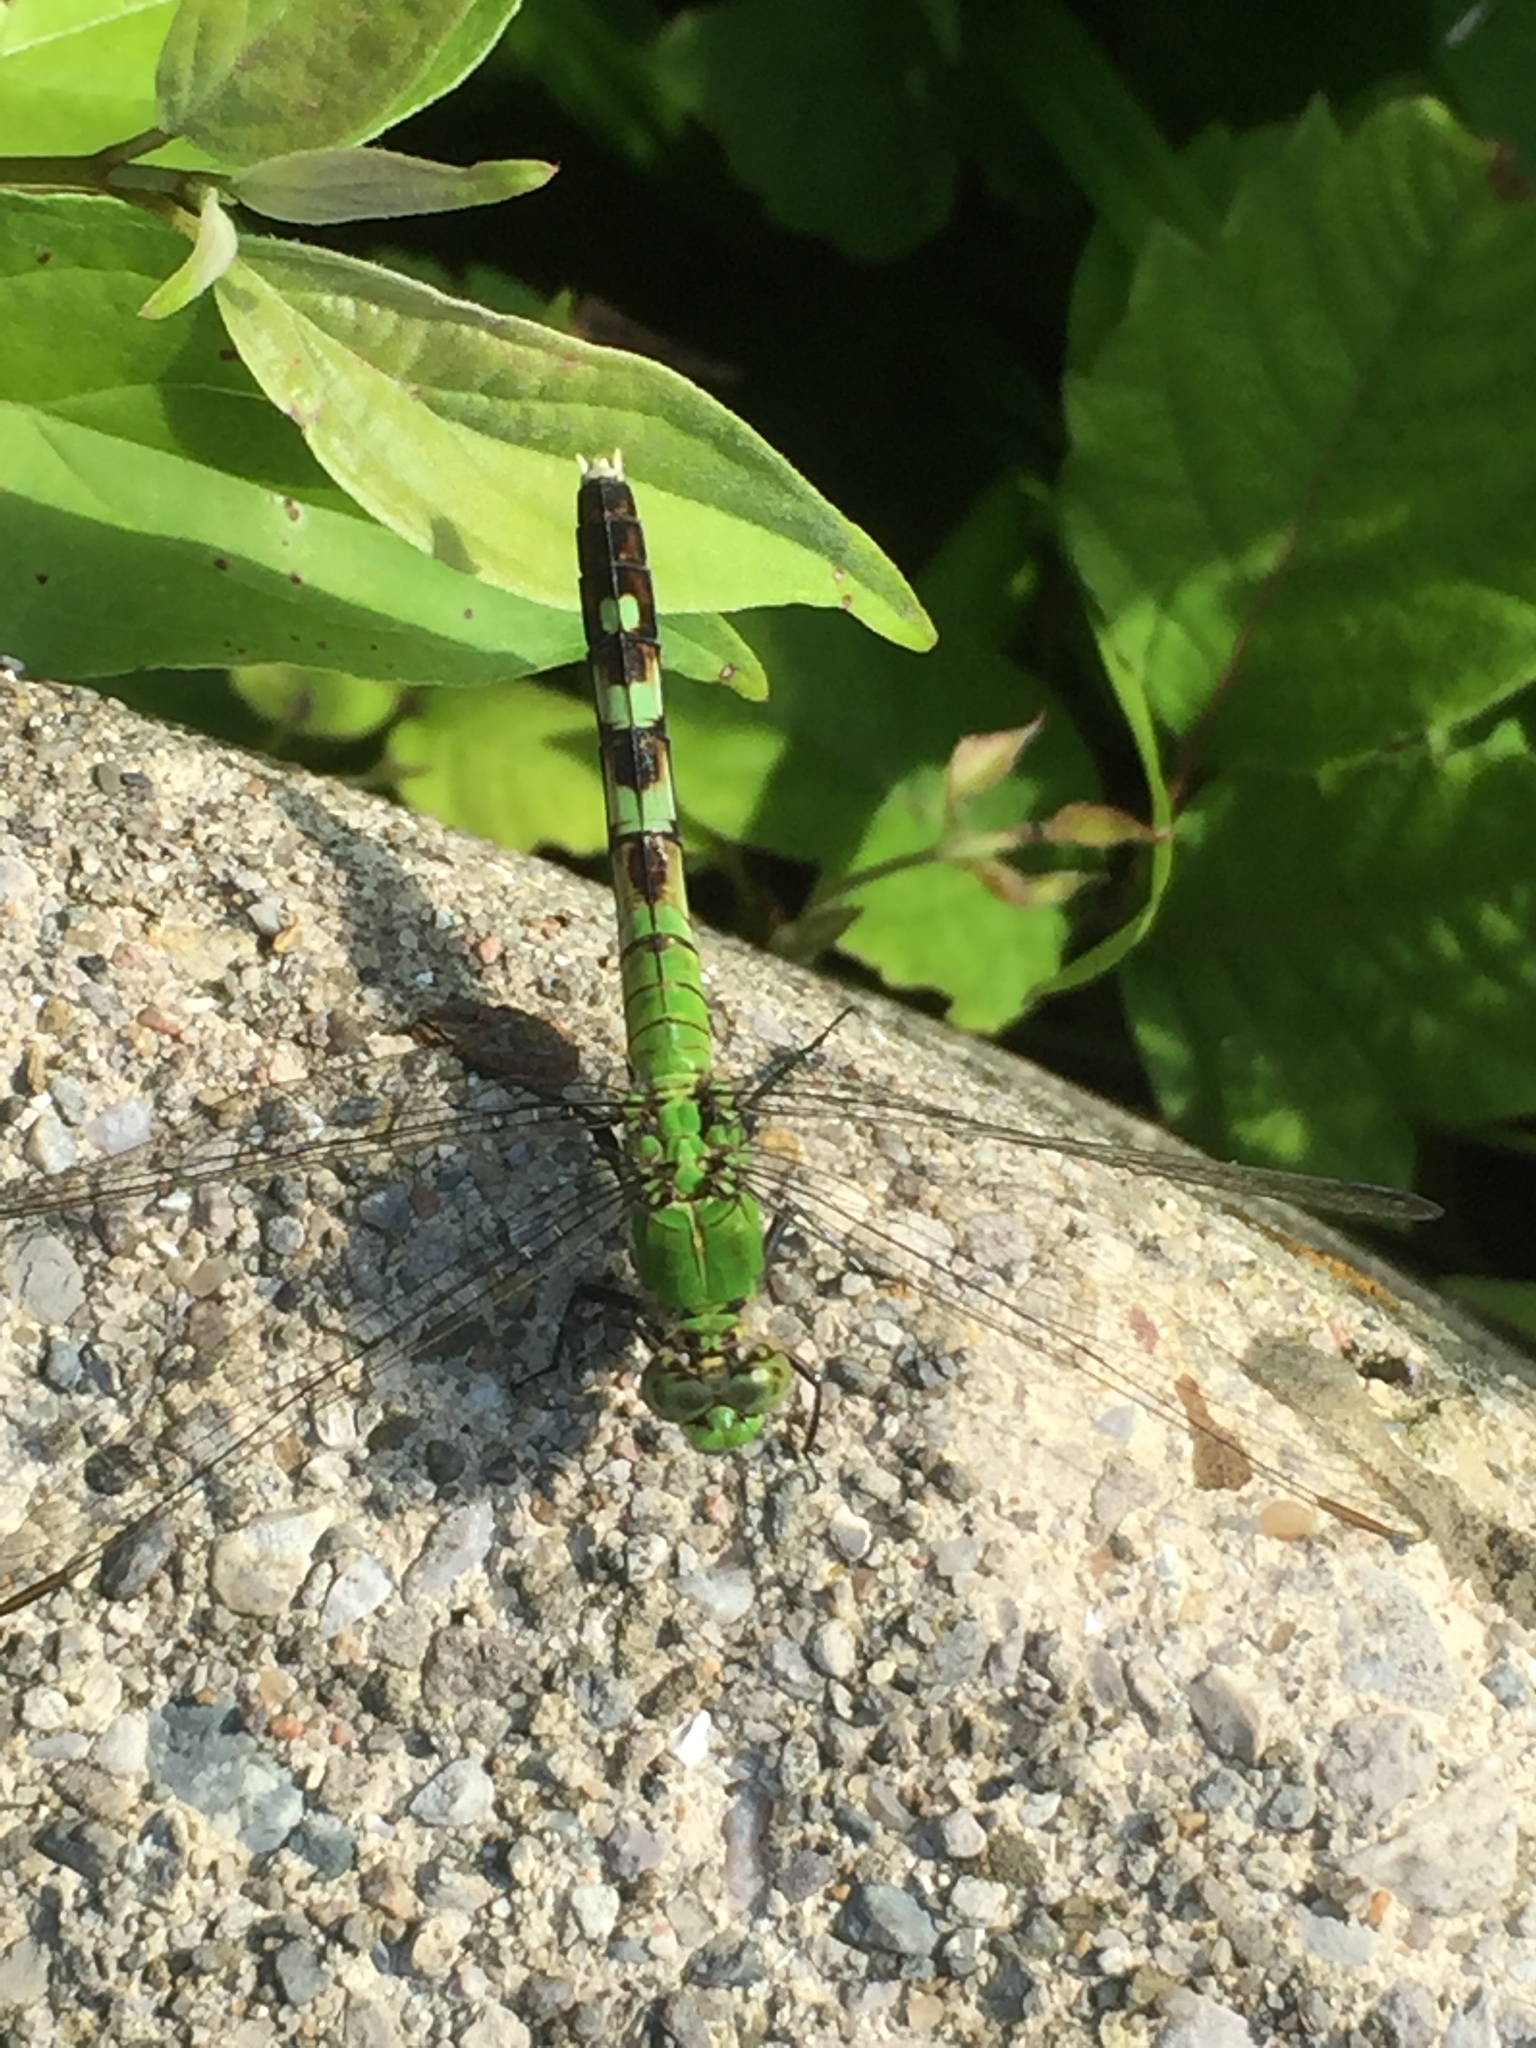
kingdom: Animalia
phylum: Arthropoda
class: Insecta
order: Odonata
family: Libellulidae
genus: Erythemis
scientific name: Erythemis simplicicollis
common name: Eastern pondhawk
